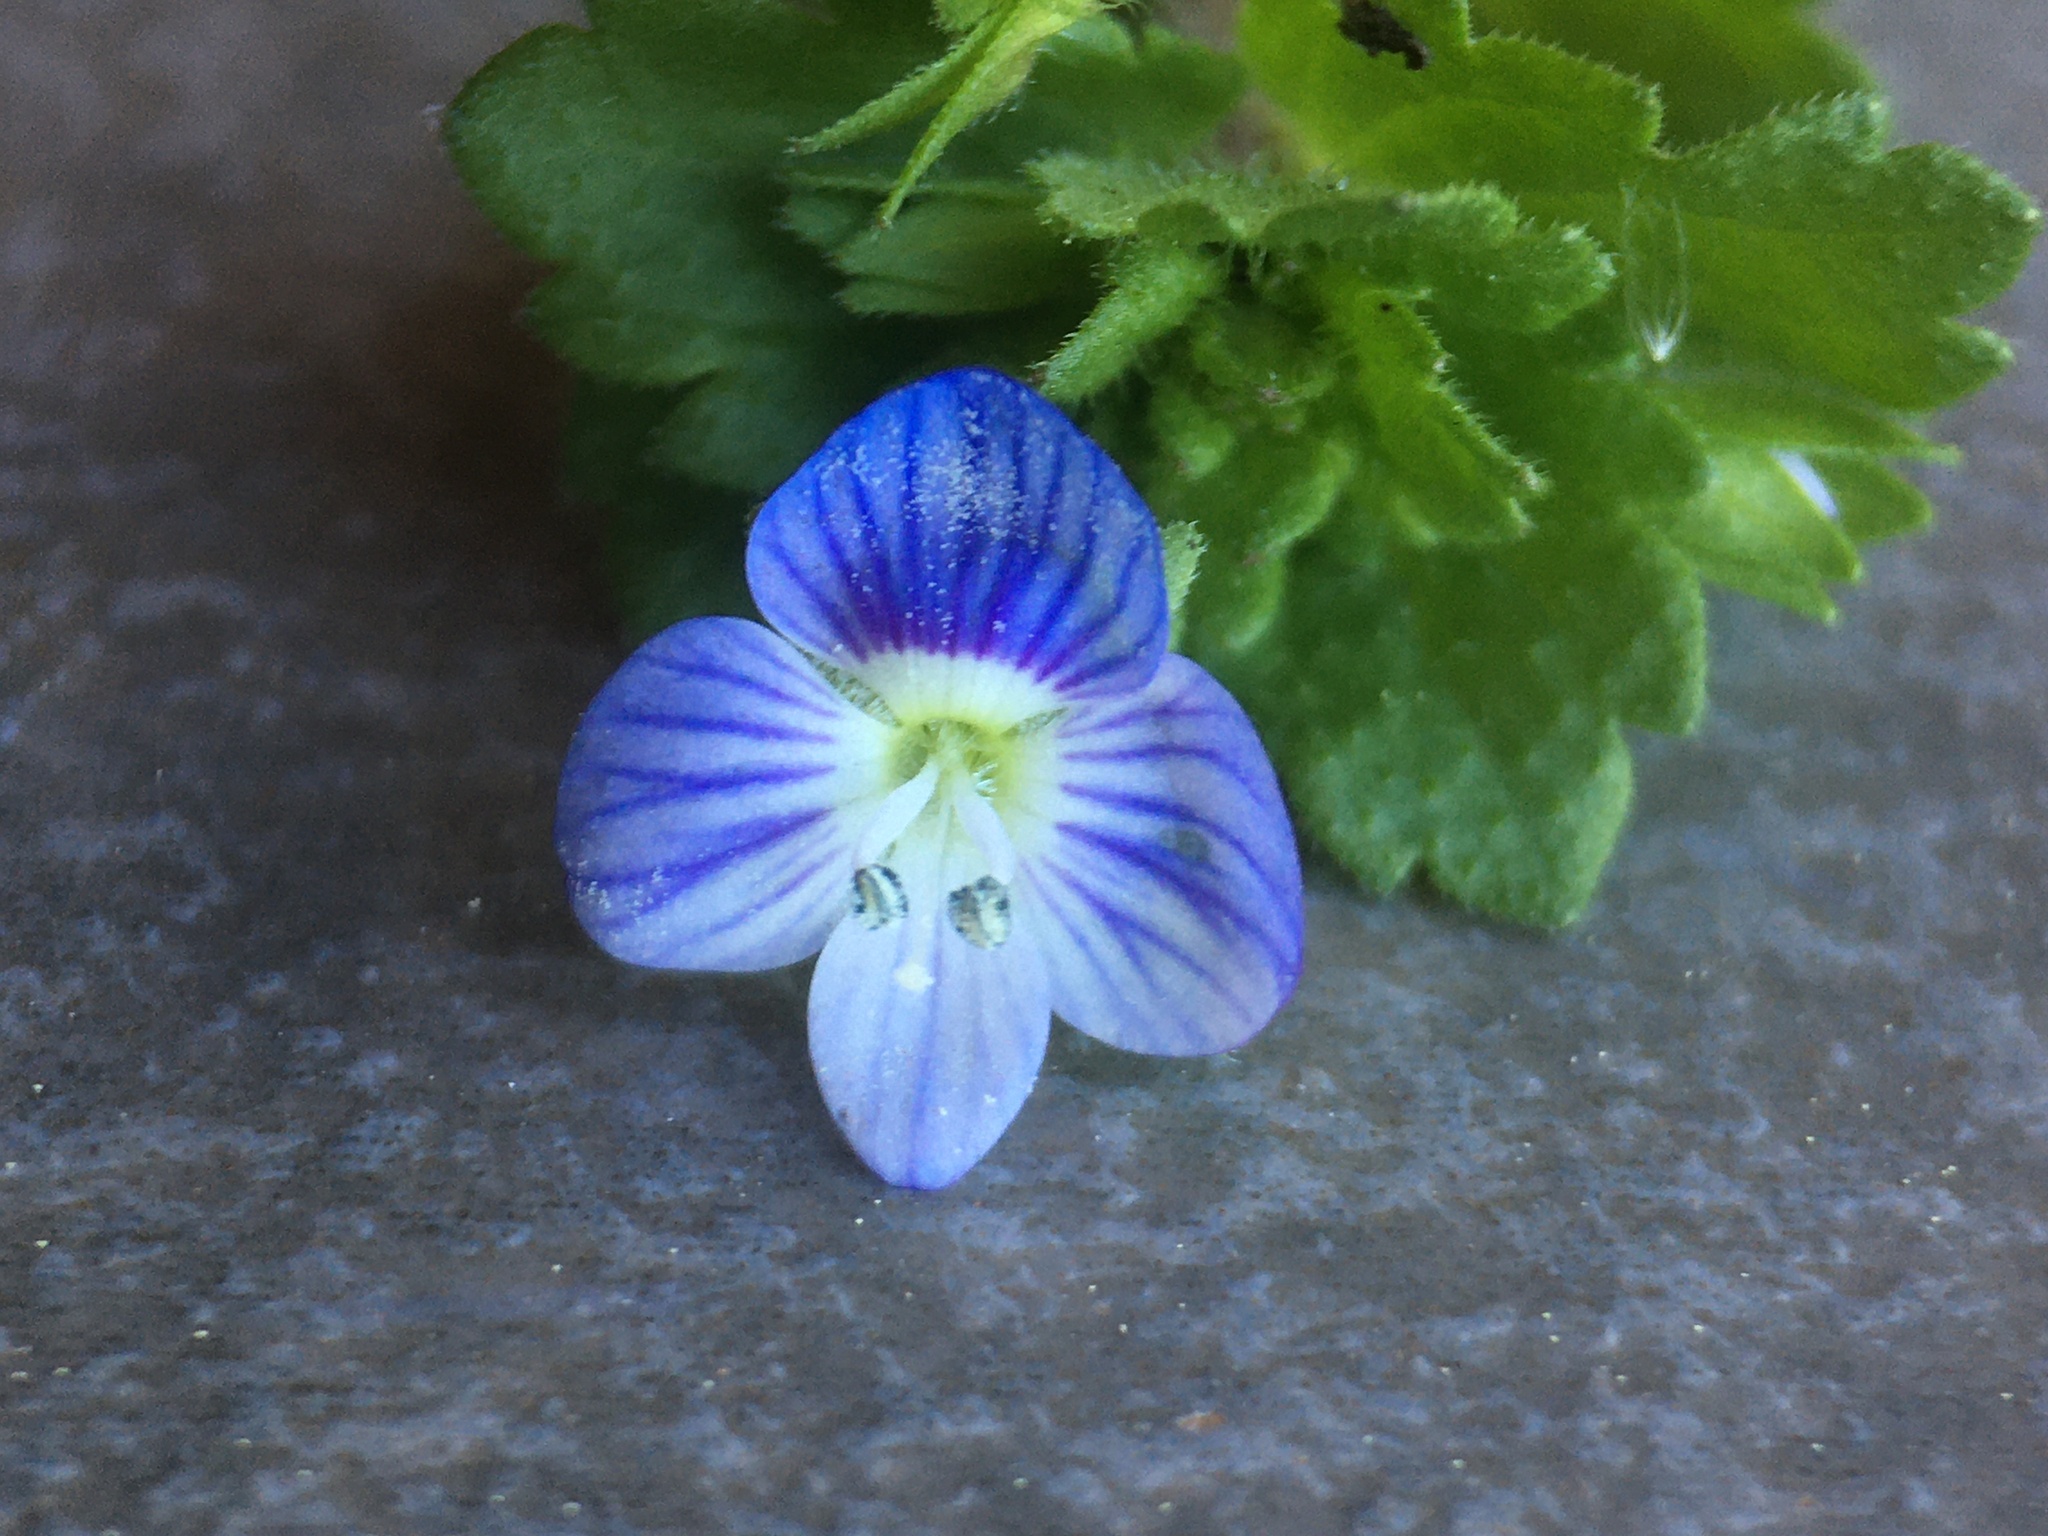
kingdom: Plantae
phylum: Tracheophyta
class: Magnoliopsida
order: Lamiales
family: Plantaginaceae
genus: Veronica
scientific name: Veronica persica
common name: Common field-speedwell
